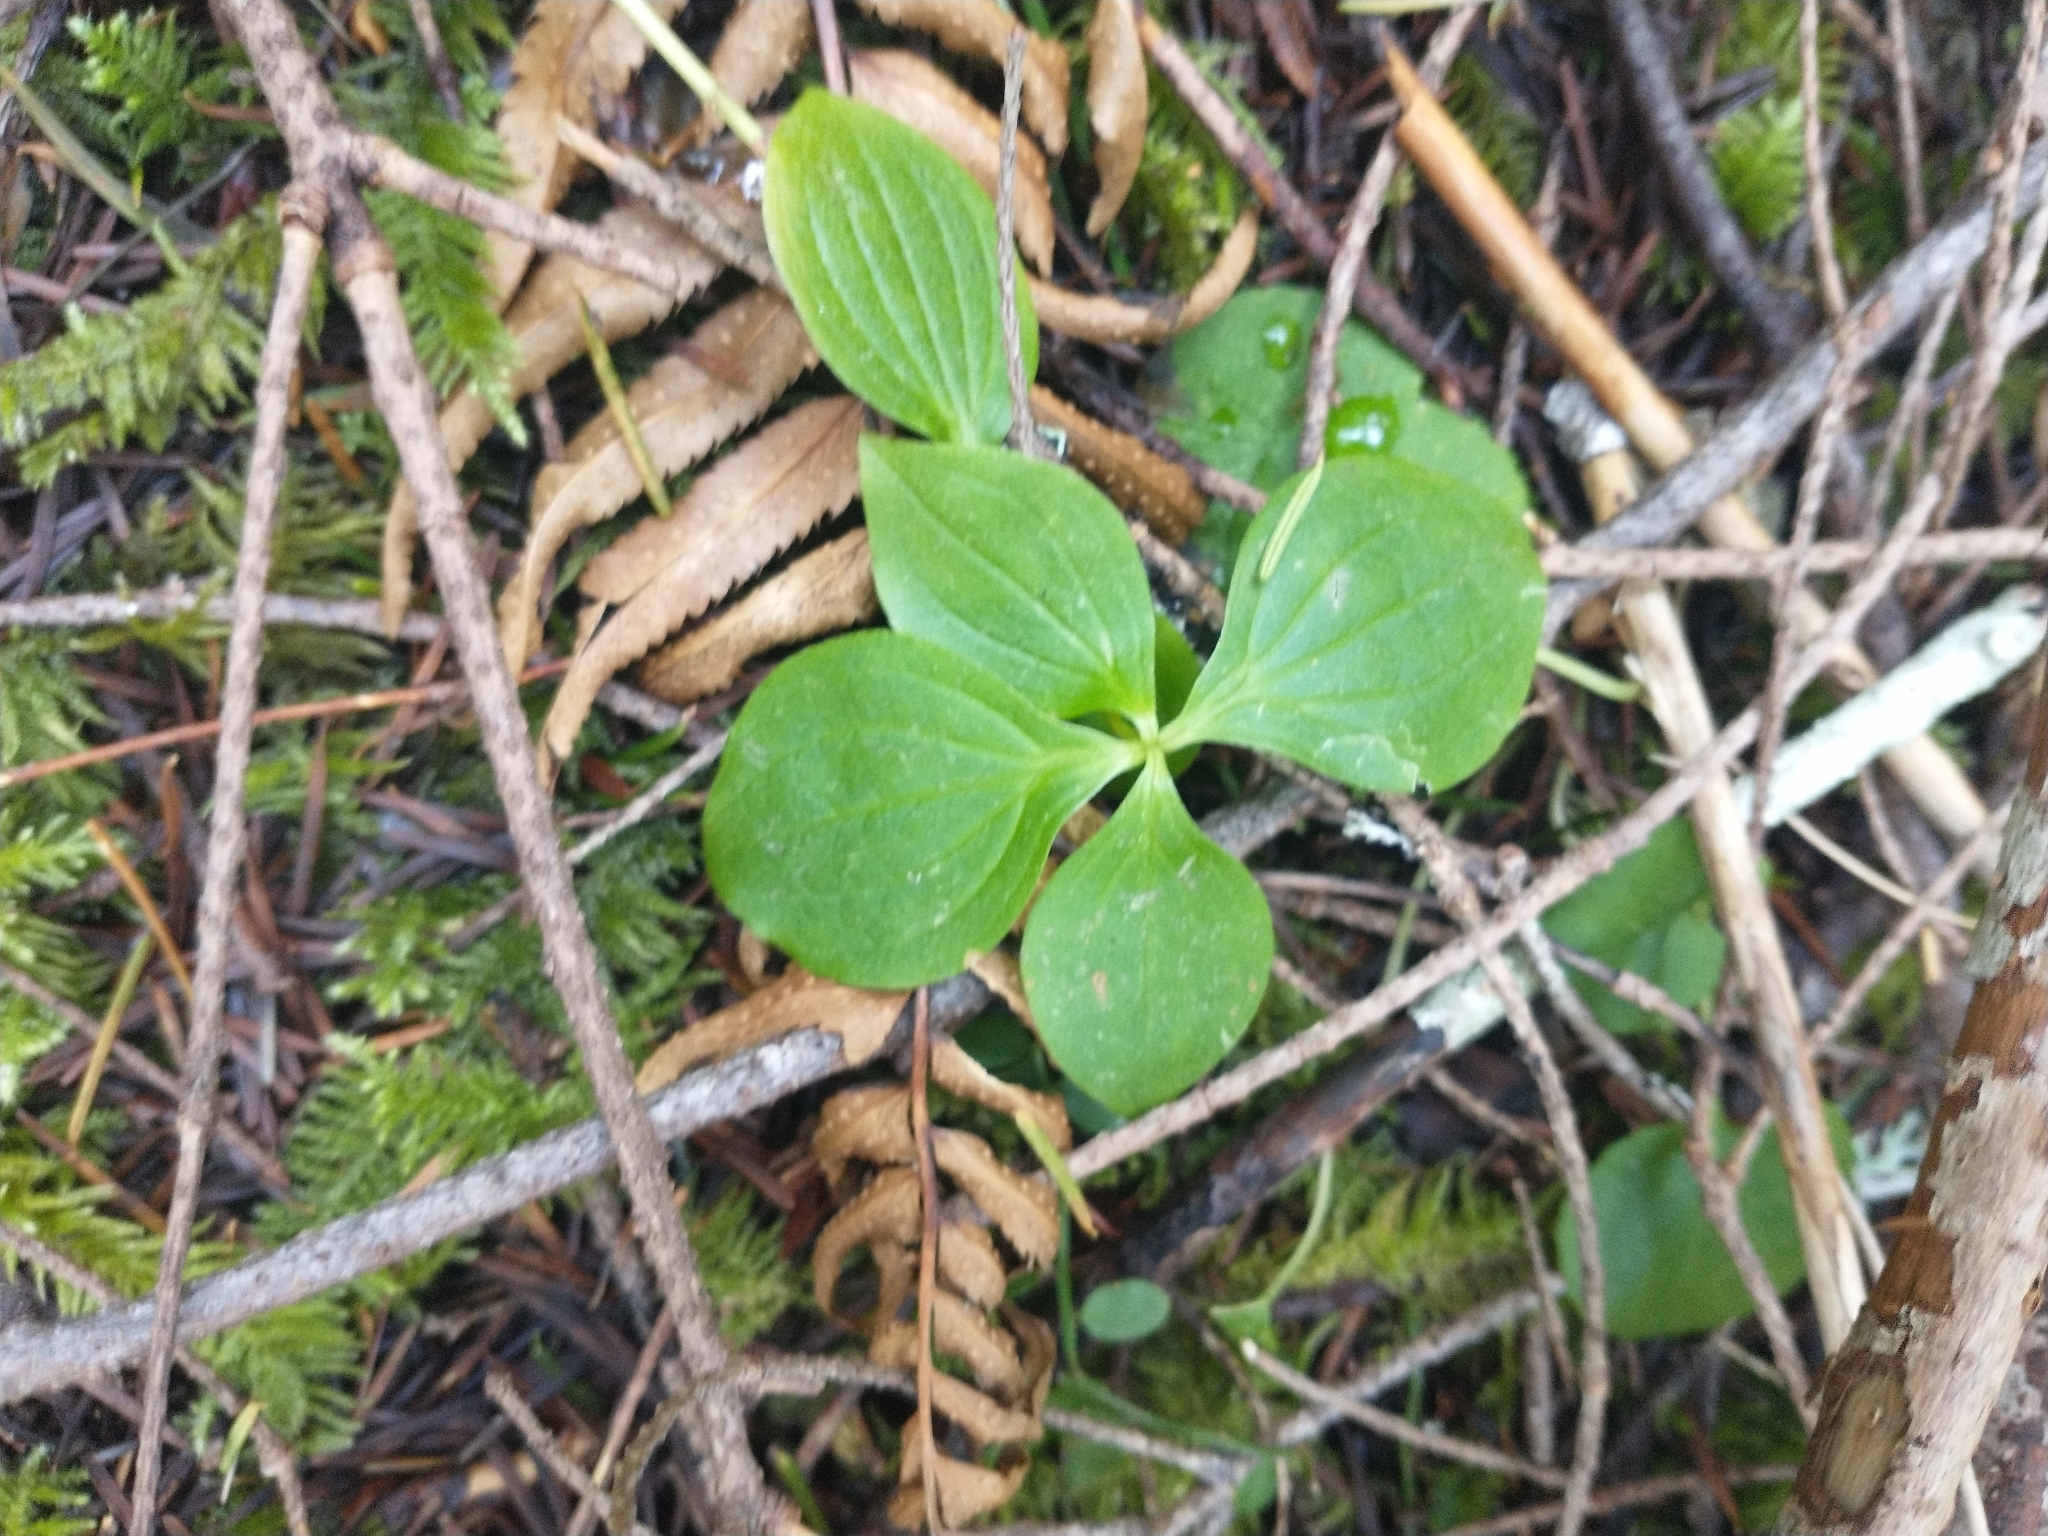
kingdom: Plantae
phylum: Tracheophyta
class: Magnoliopsida
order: Cornales
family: Cornaceae
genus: Cornus
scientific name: Cornus unalaschkensis
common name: Alaska bunchberry
